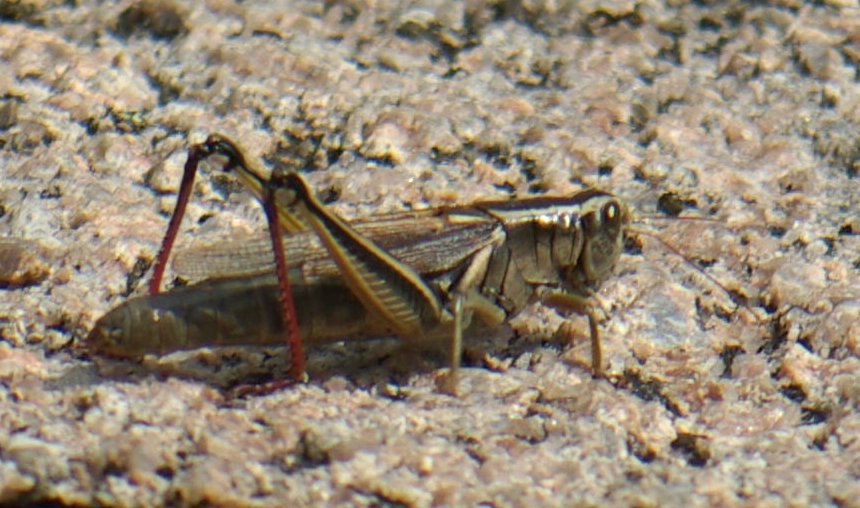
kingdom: Animalia
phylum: Arthropoda
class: Insecta
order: Orthoptera
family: Acrididae
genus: Melanoplus
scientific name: Melanoplus bivittatus
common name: Two-striped grasshopper
